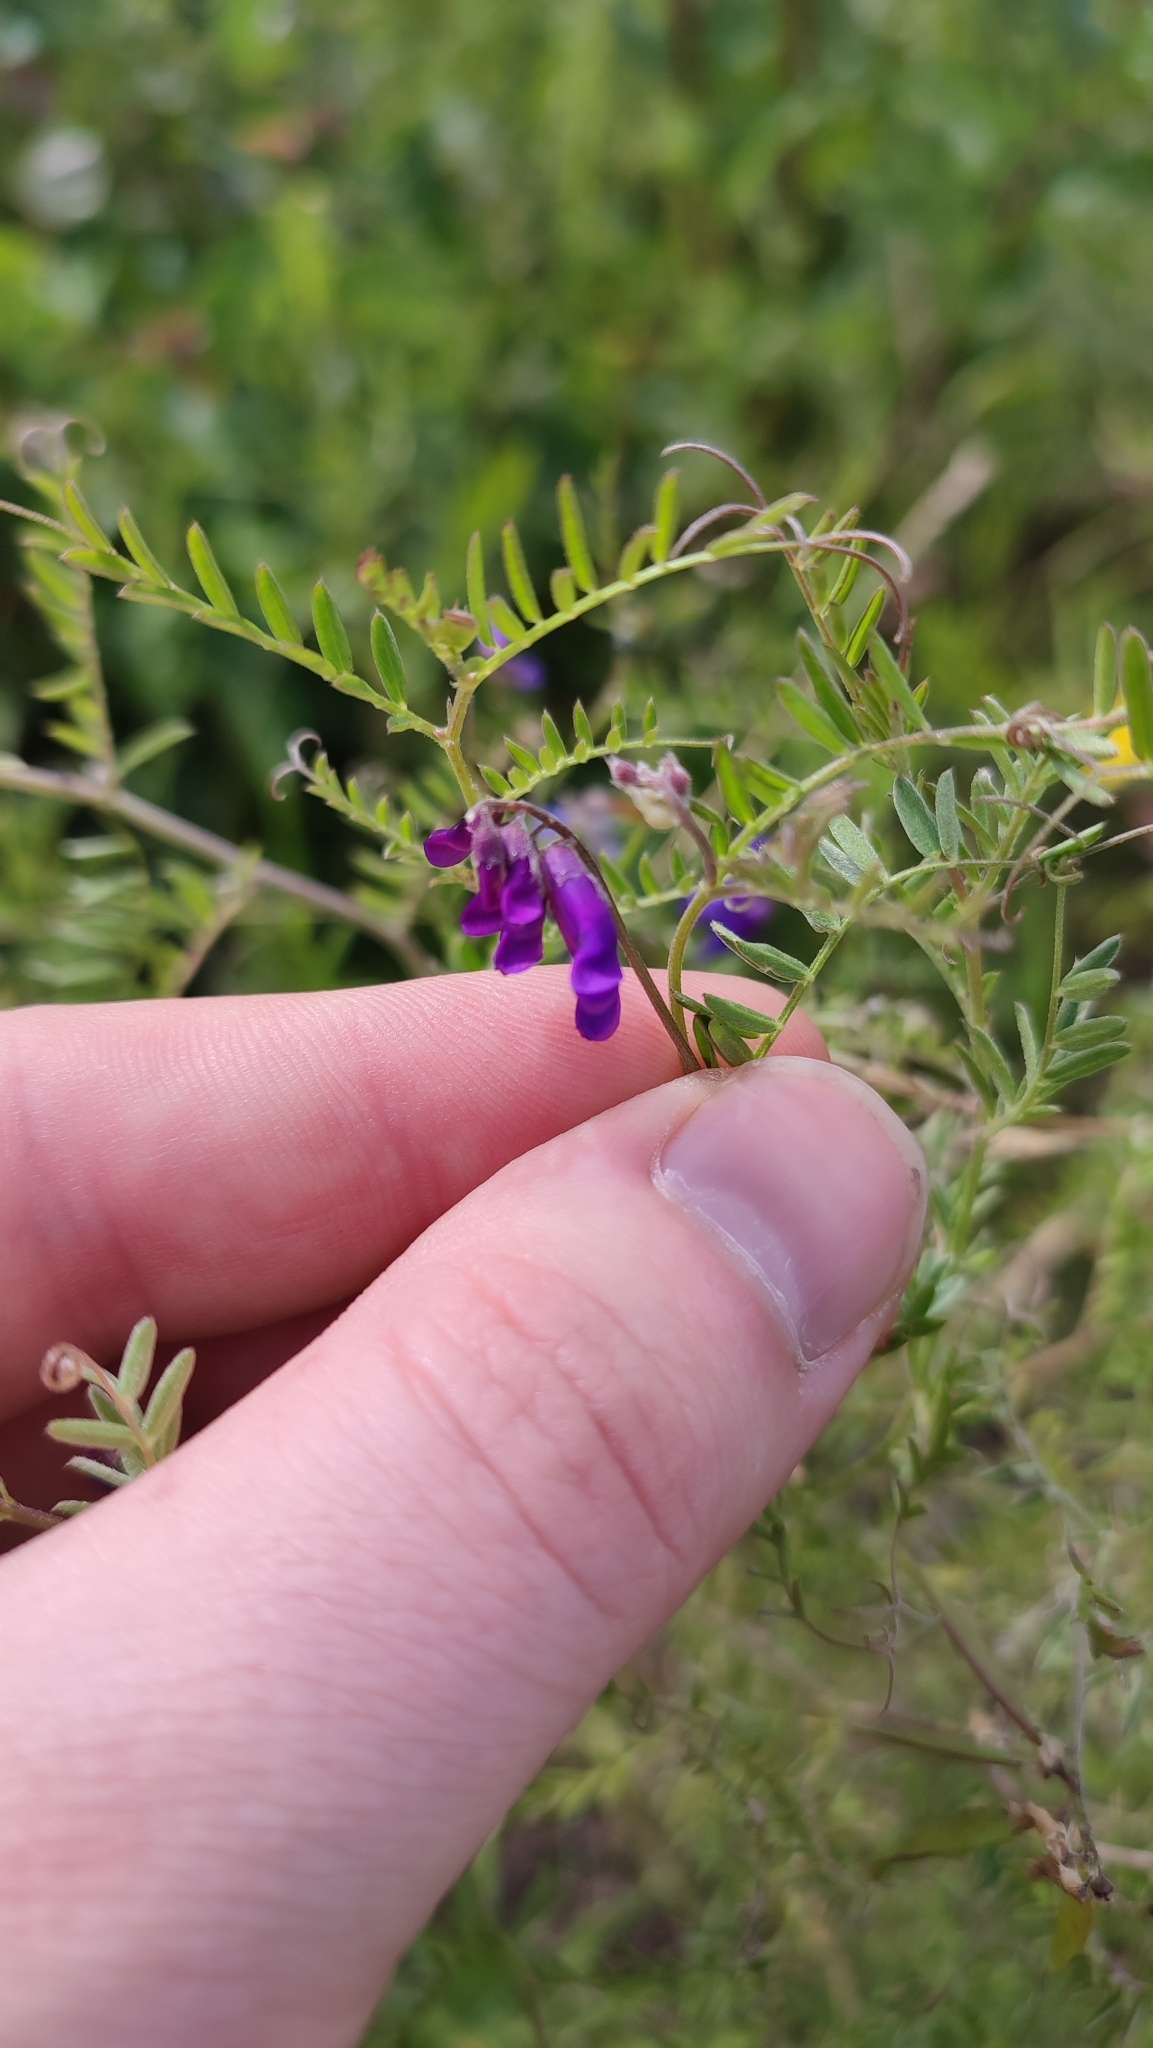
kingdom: Plantae
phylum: Tracheophyta
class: Magnoliopsida
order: Fabales
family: Fabaceae
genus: Vicia
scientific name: Vicia cracca
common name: Bird vetch
